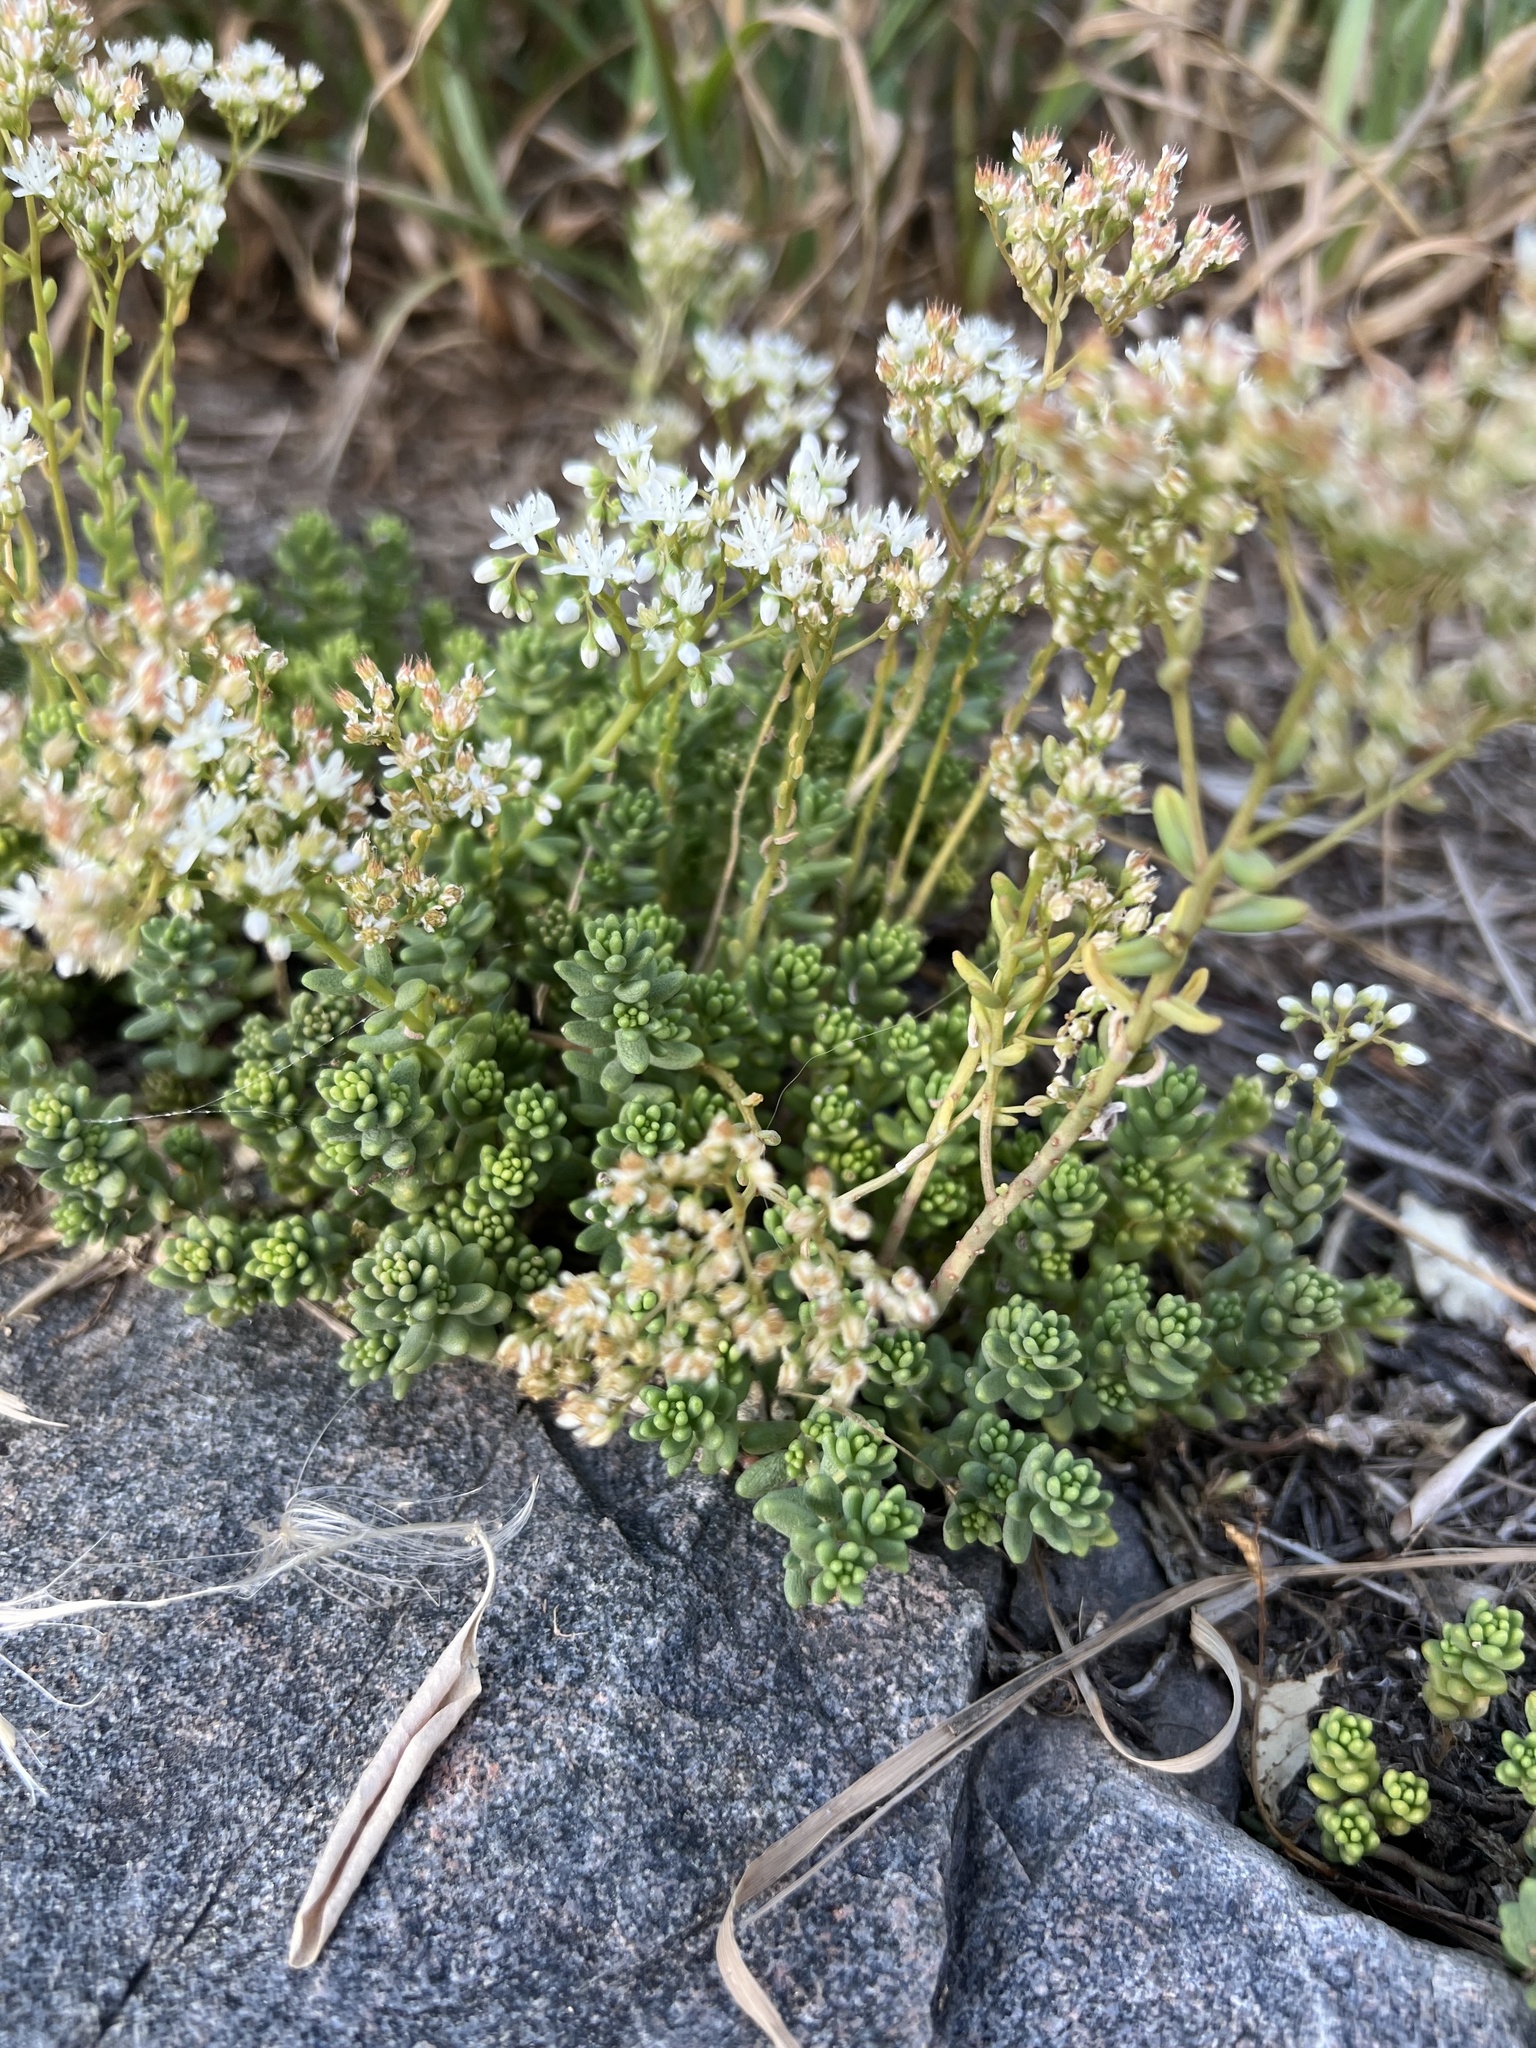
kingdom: Plantae
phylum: Tracheophyta
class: Magnoliopsida
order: Saxifragales
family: Crassulaceae
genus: Sedum
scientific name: Sedum album
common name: White stonecrop
